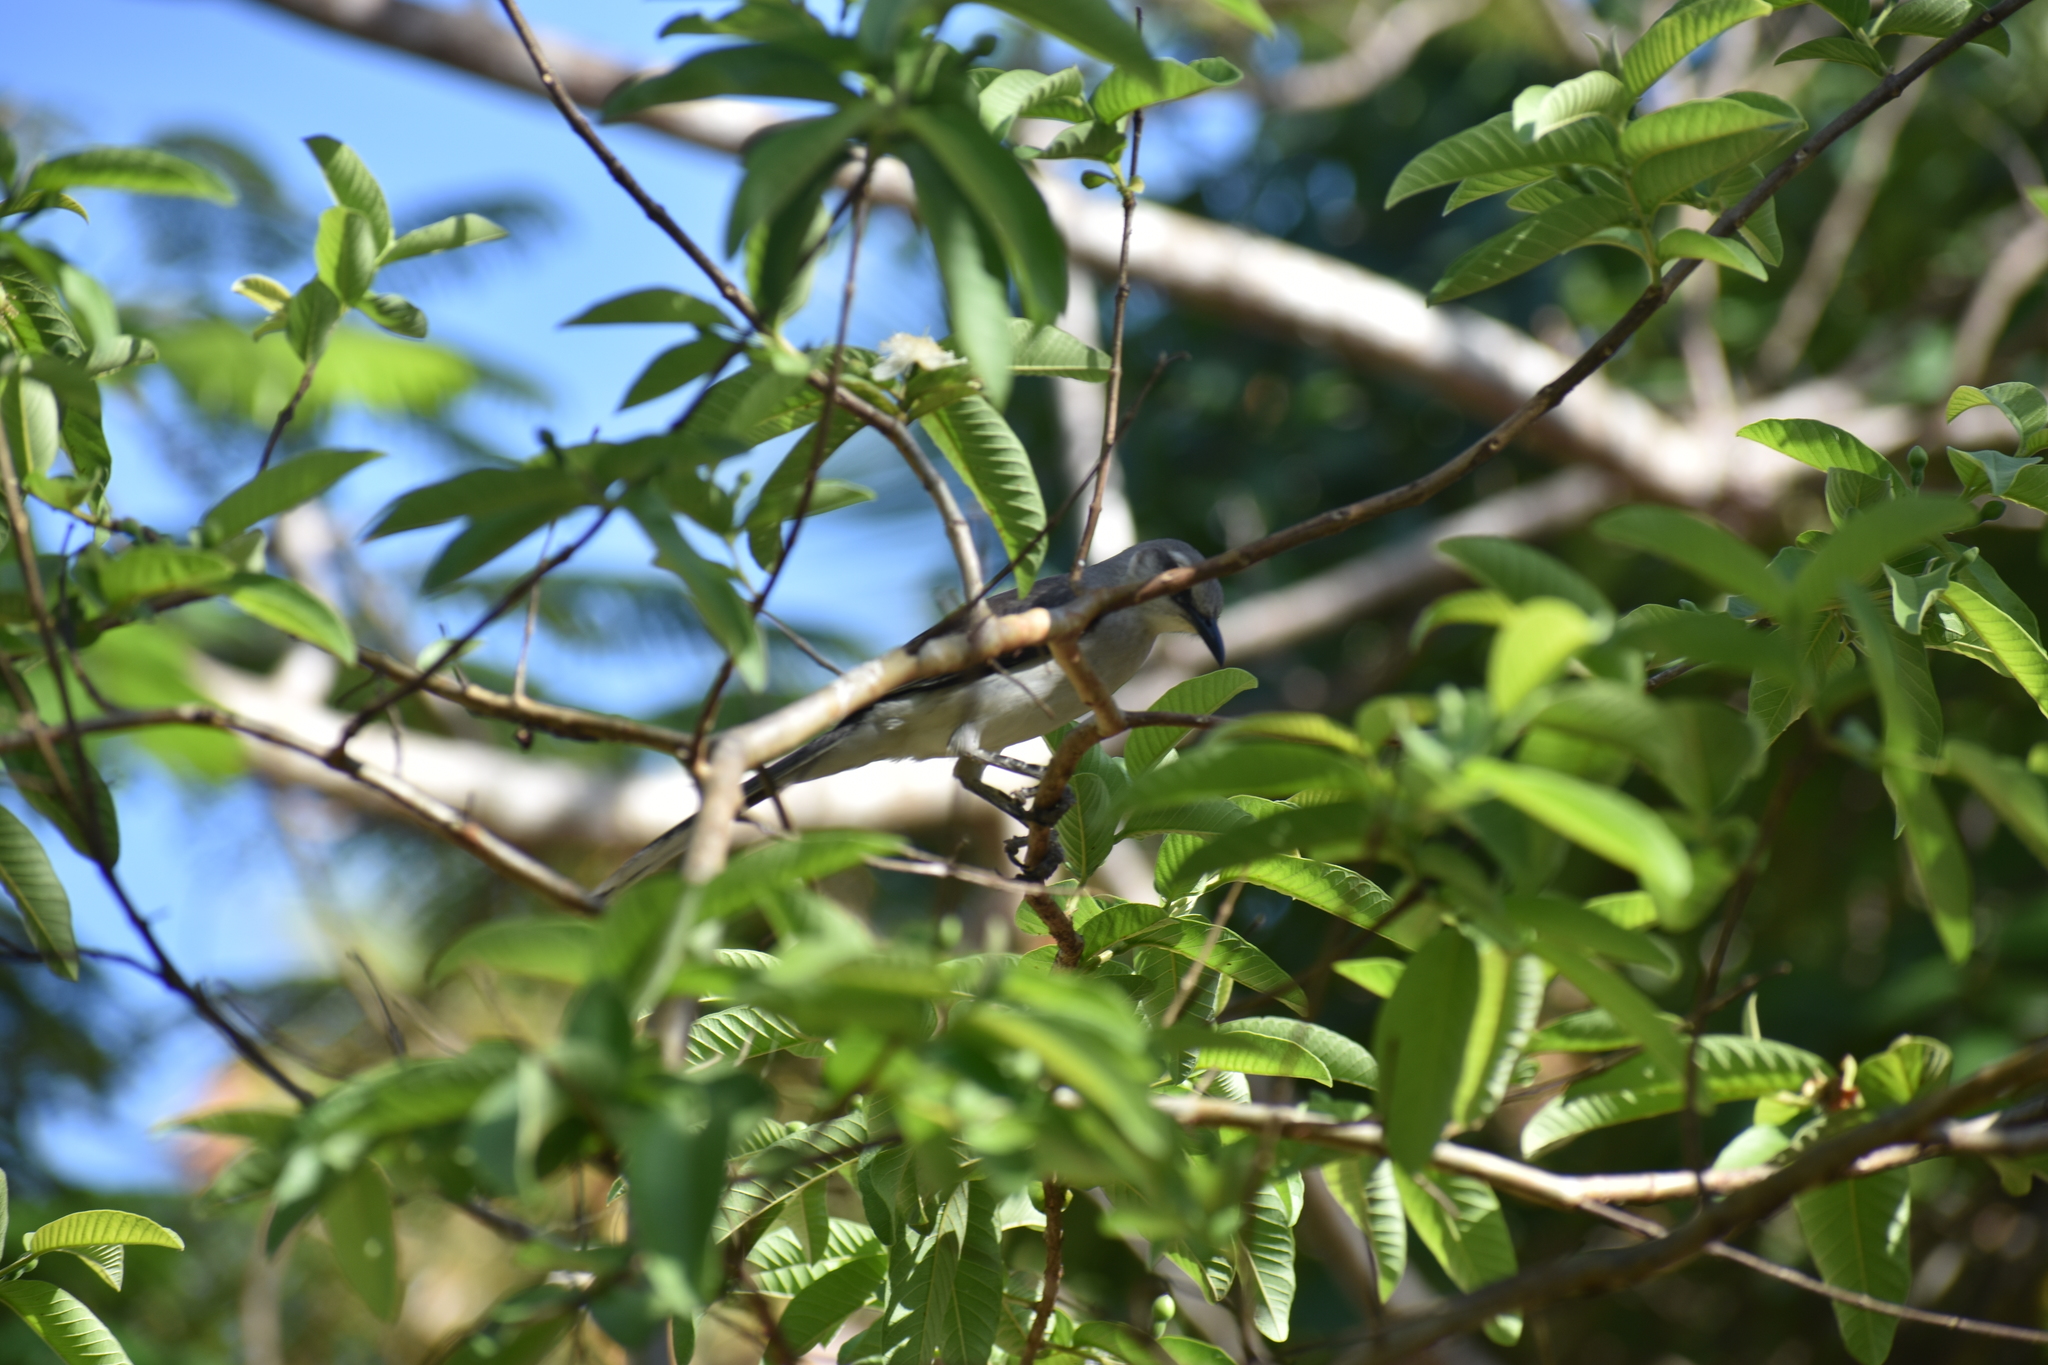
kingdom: Animalia
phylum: Chordata
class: Aves
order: Passeriformes
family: Mimidae
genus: Mimus
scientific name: Mimus gilvus
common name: Tropical mockingbird
